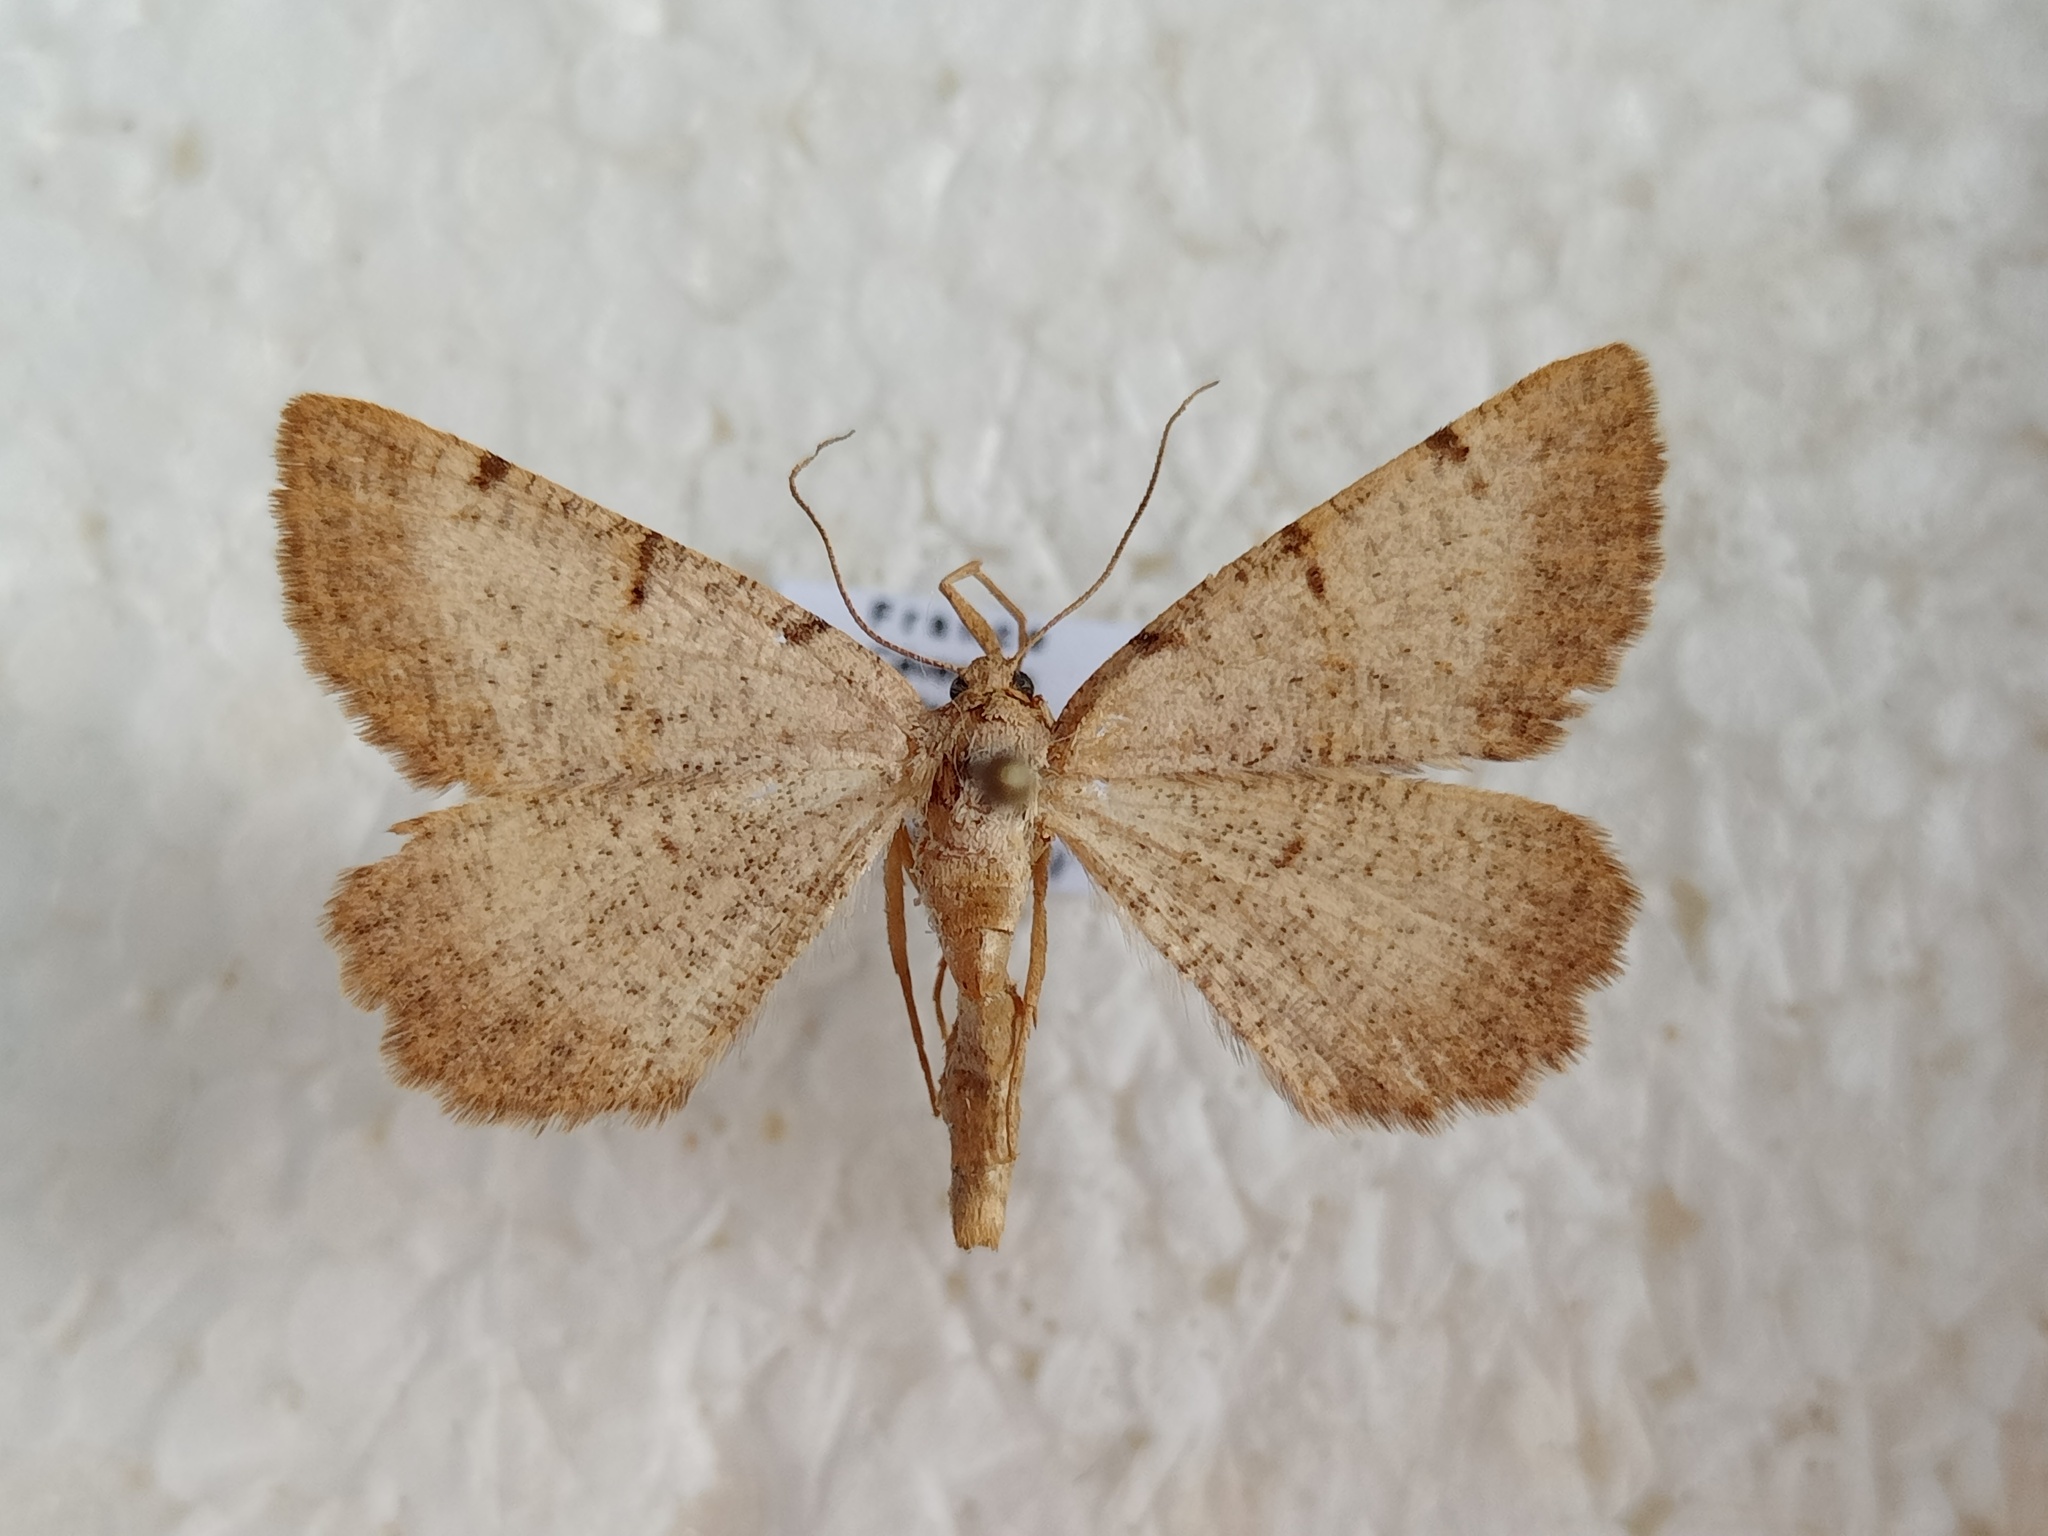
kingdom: Animalia
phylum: Arthropoda
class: Insecta
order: Lepidoptera
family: Geometridae
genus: Selidosema
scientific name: Selidosema brunnearia
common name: Bordered grey
